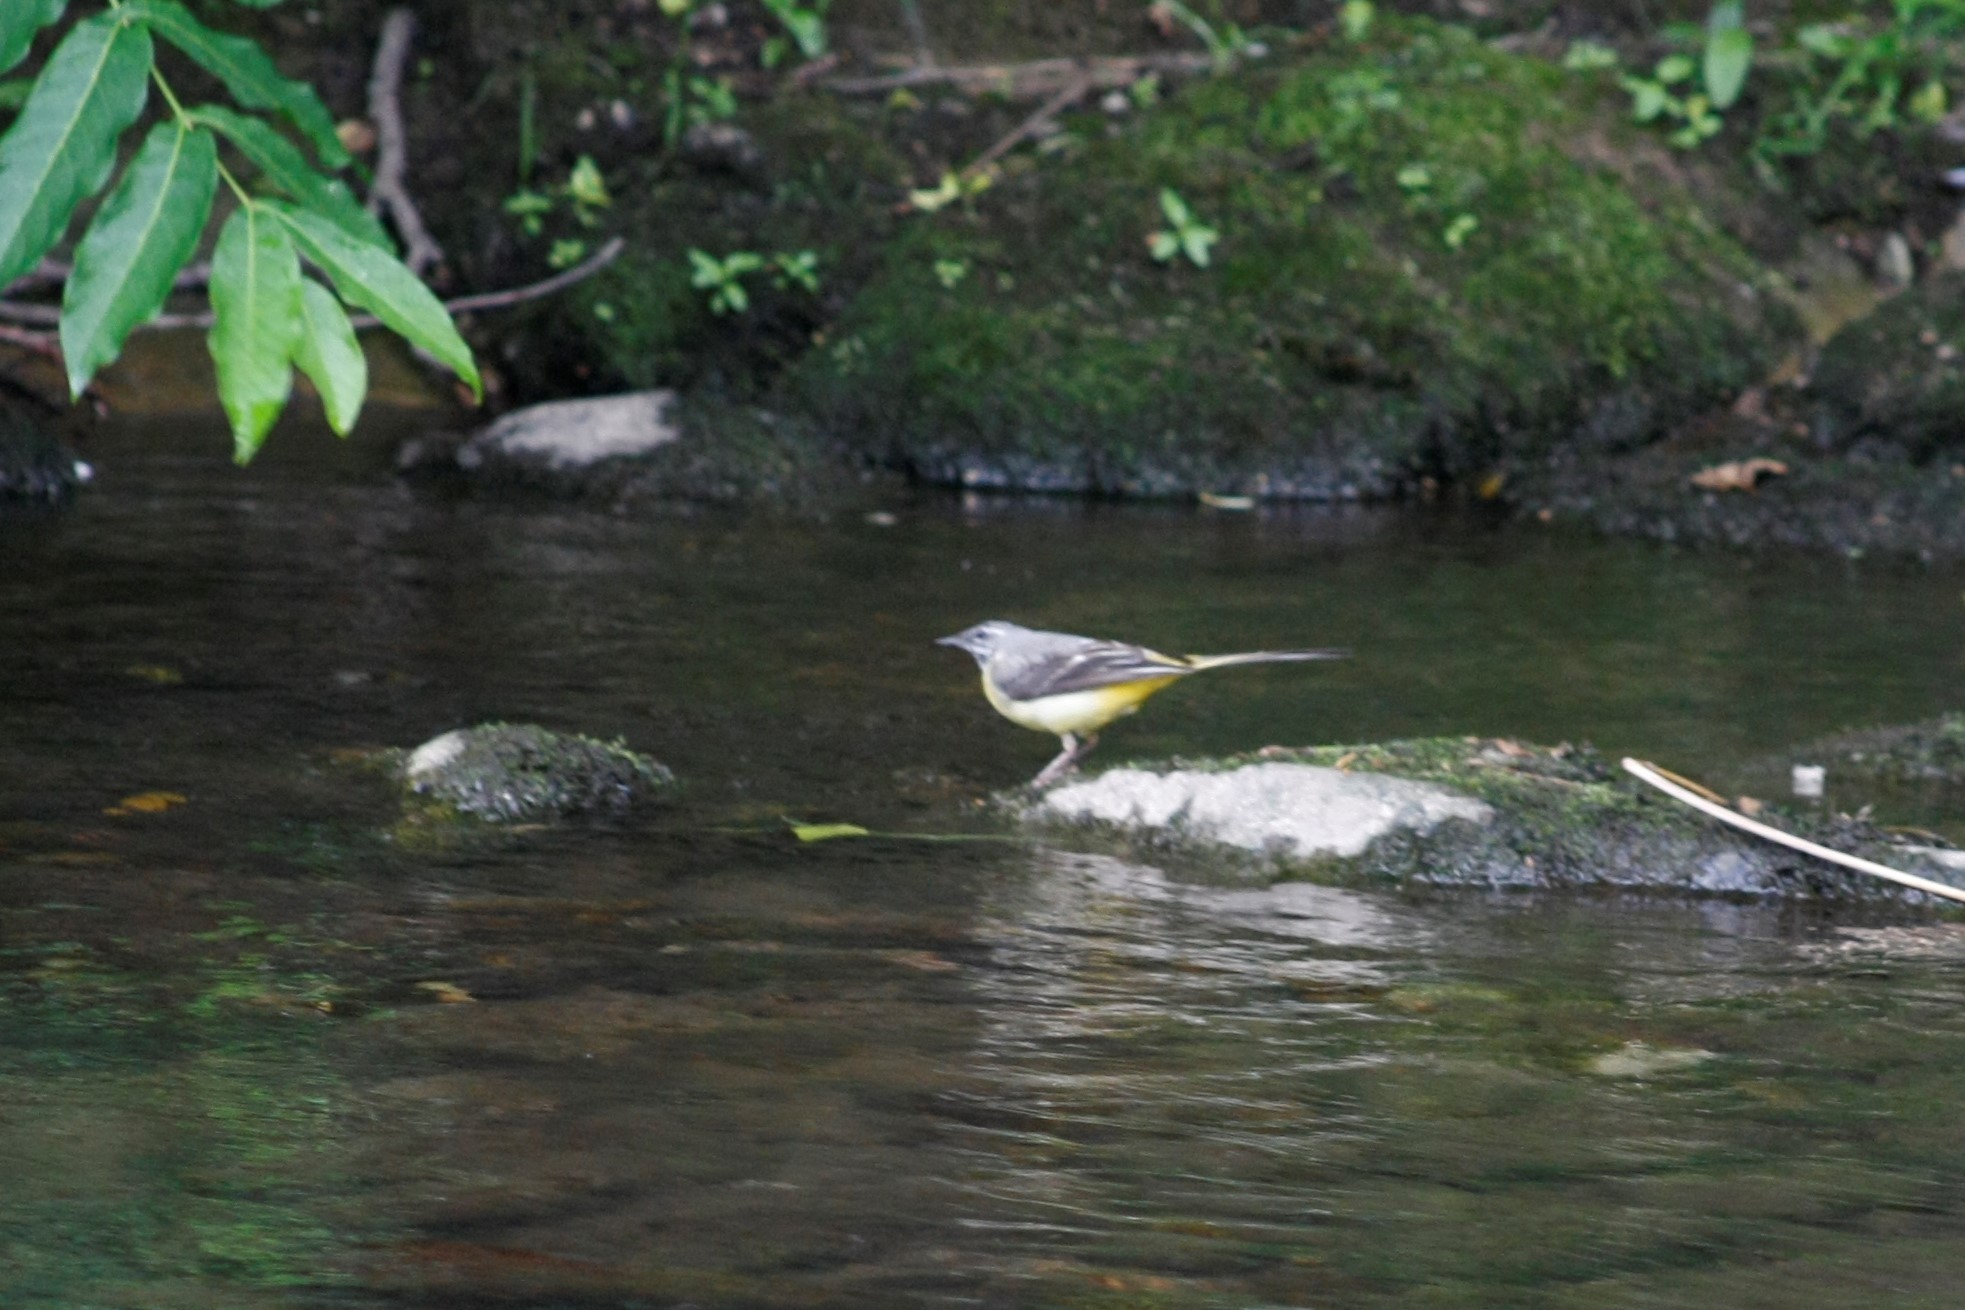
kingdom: Animalia
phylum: Chordata
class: Aves
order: Passeriformes
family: Motacillidae
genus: Motacilla
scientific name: Motacilla cinerea
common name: Grey wagtail
